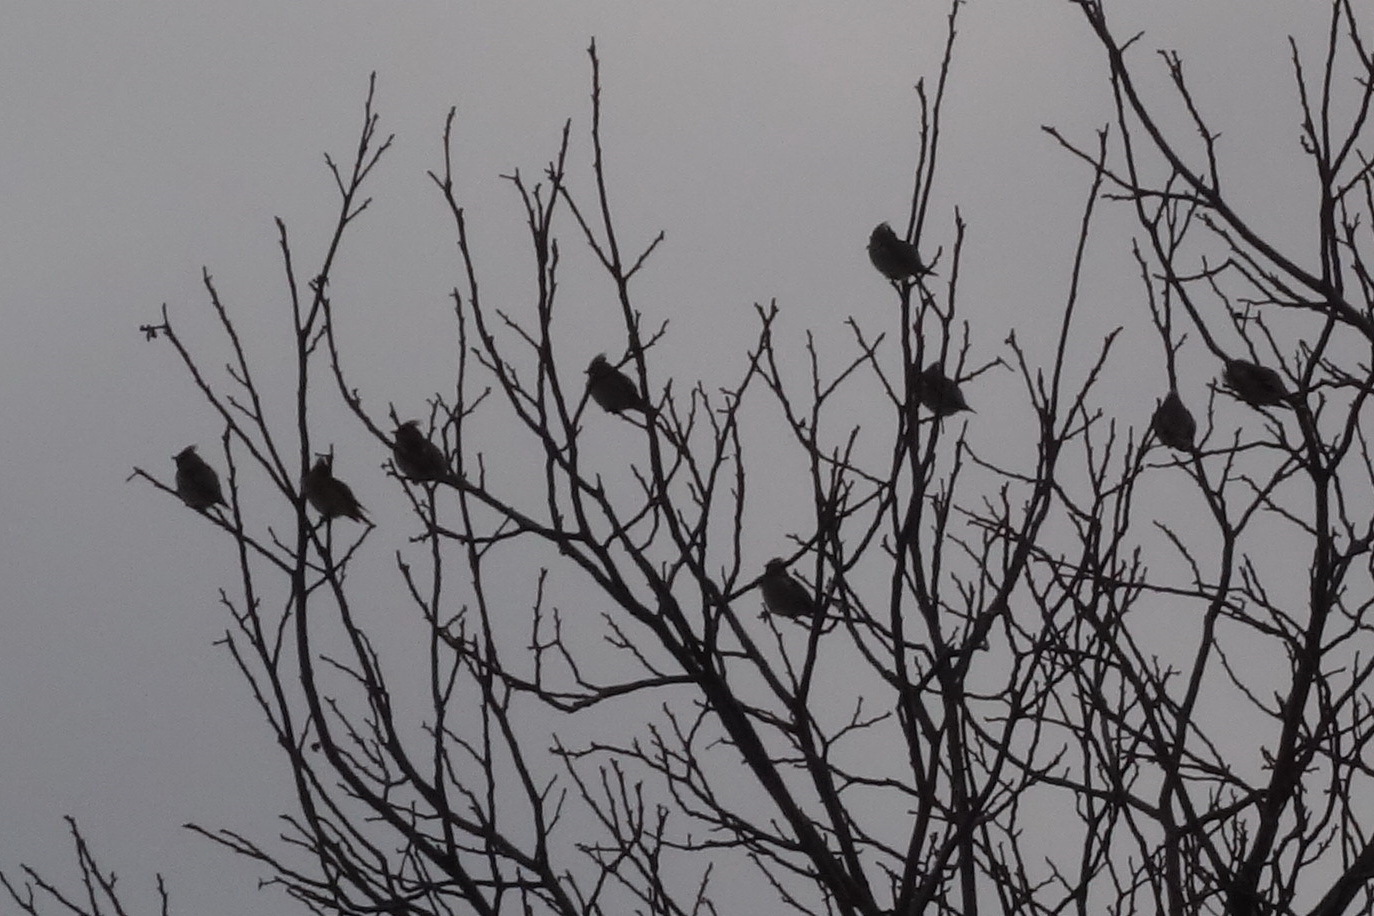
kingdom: Animalia
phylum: Chordata
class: Aves
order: Passeriformes
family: Bombycillidae
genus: Bombycilla
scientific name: Bombycilla garrulus
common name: Bohemian waxwing
